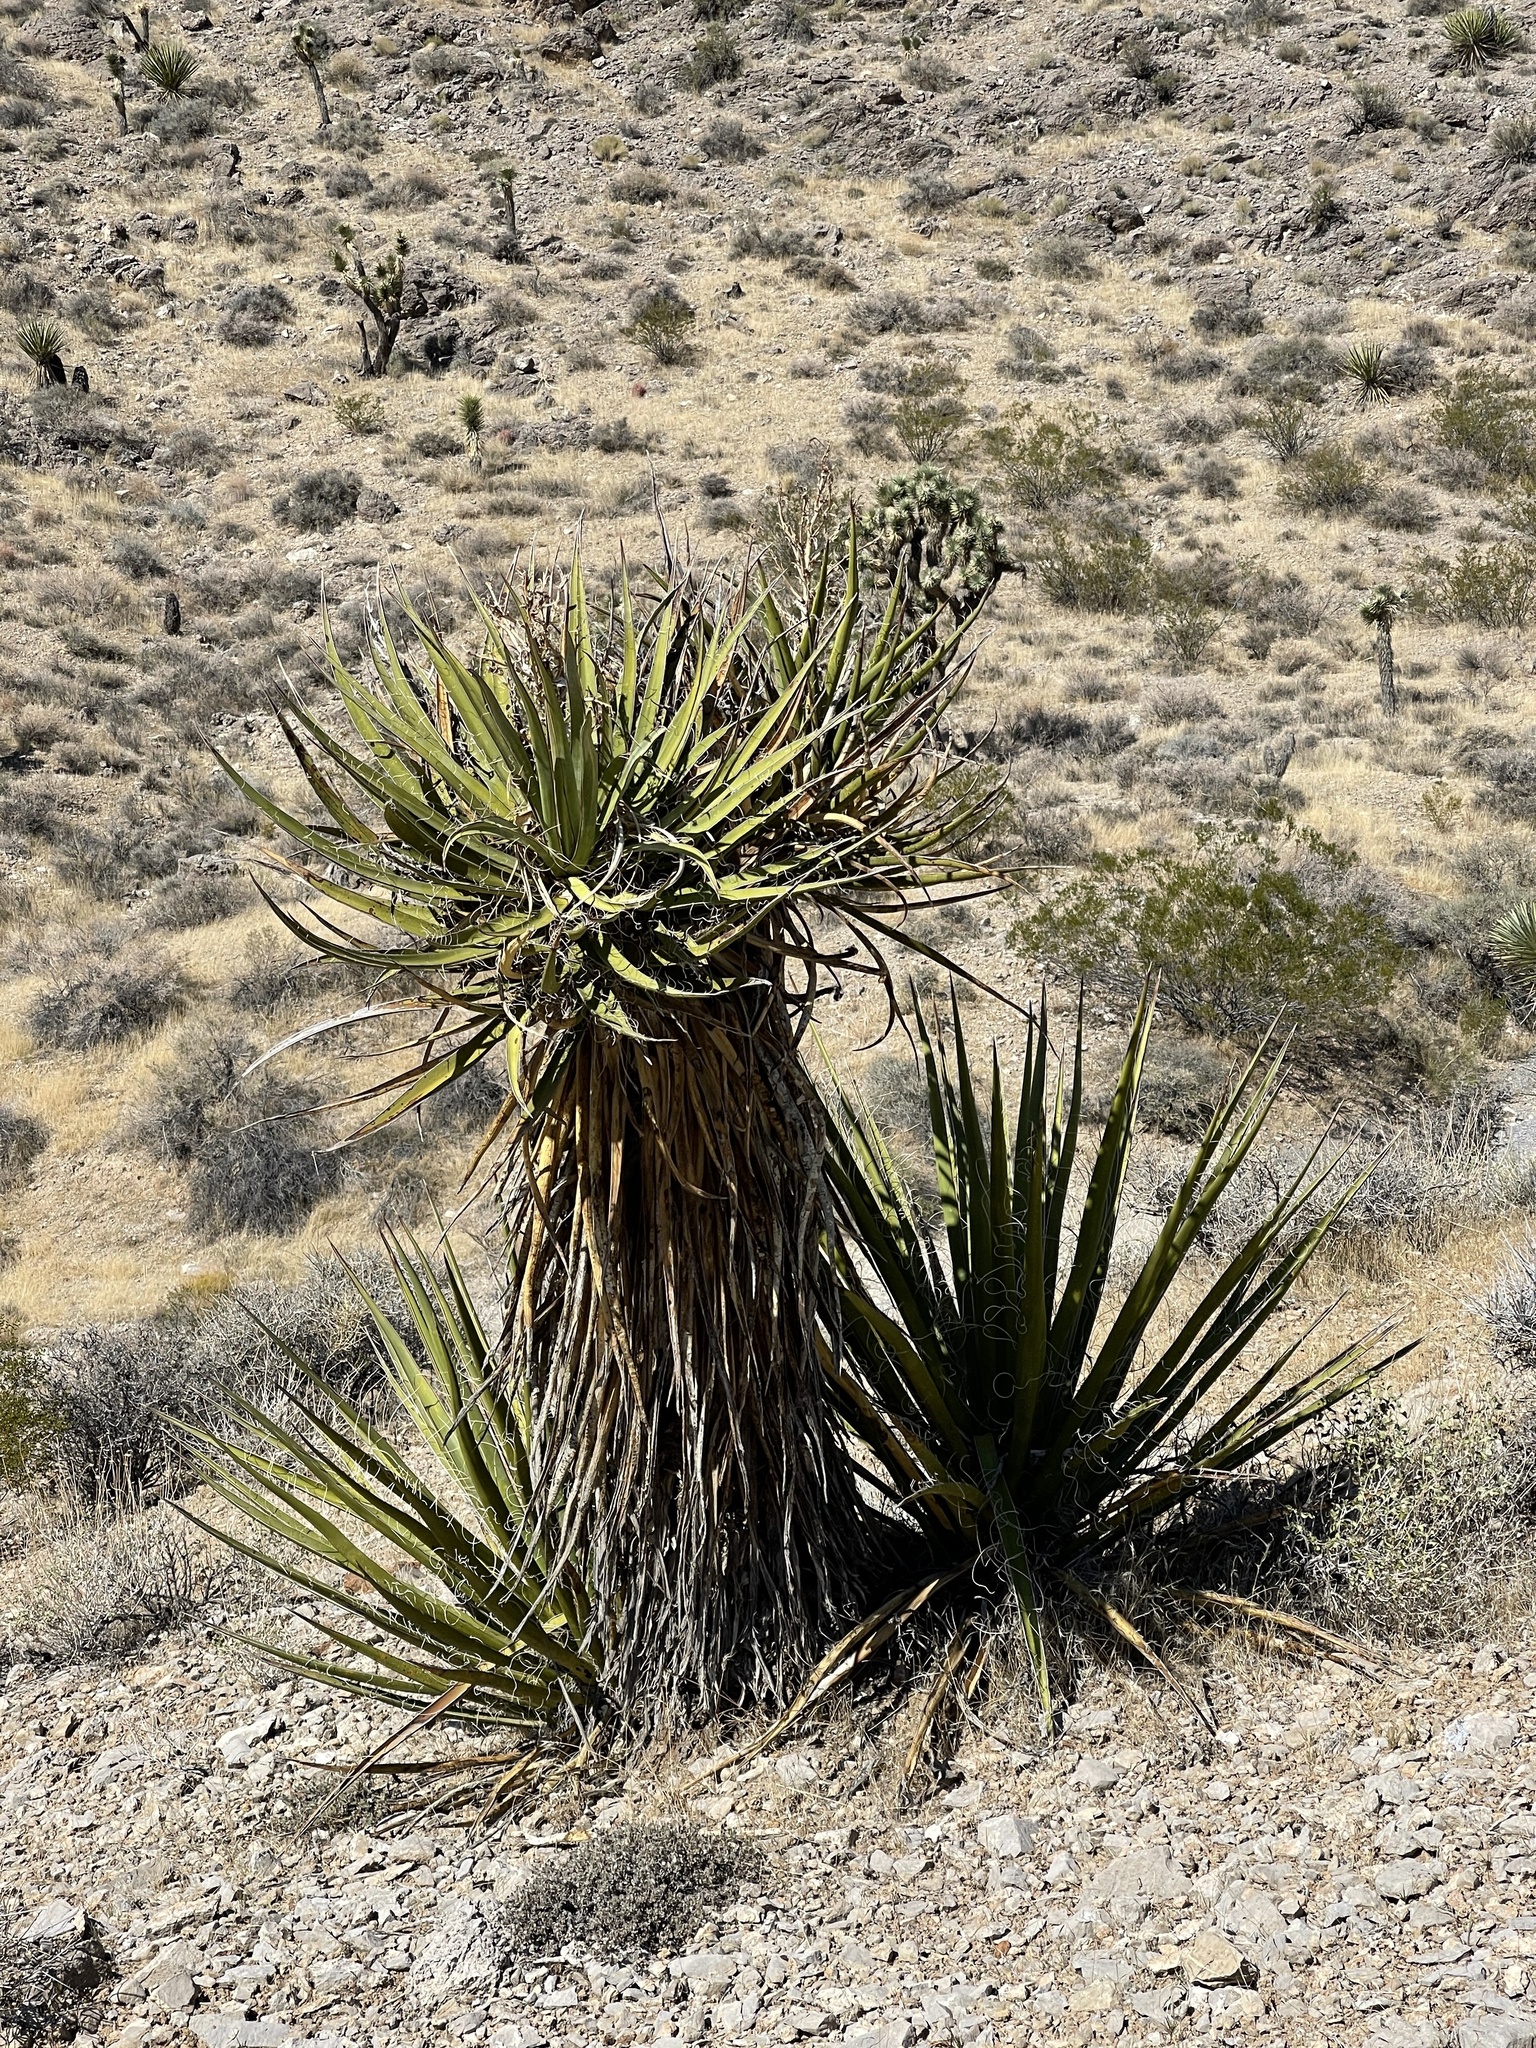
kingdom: Plantae
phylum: Tracheophyta
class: Liliopsida
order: Asparagales
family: Asparagaceae
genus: Yucca
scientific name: Yucca schidigera
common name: Mojave yucca
